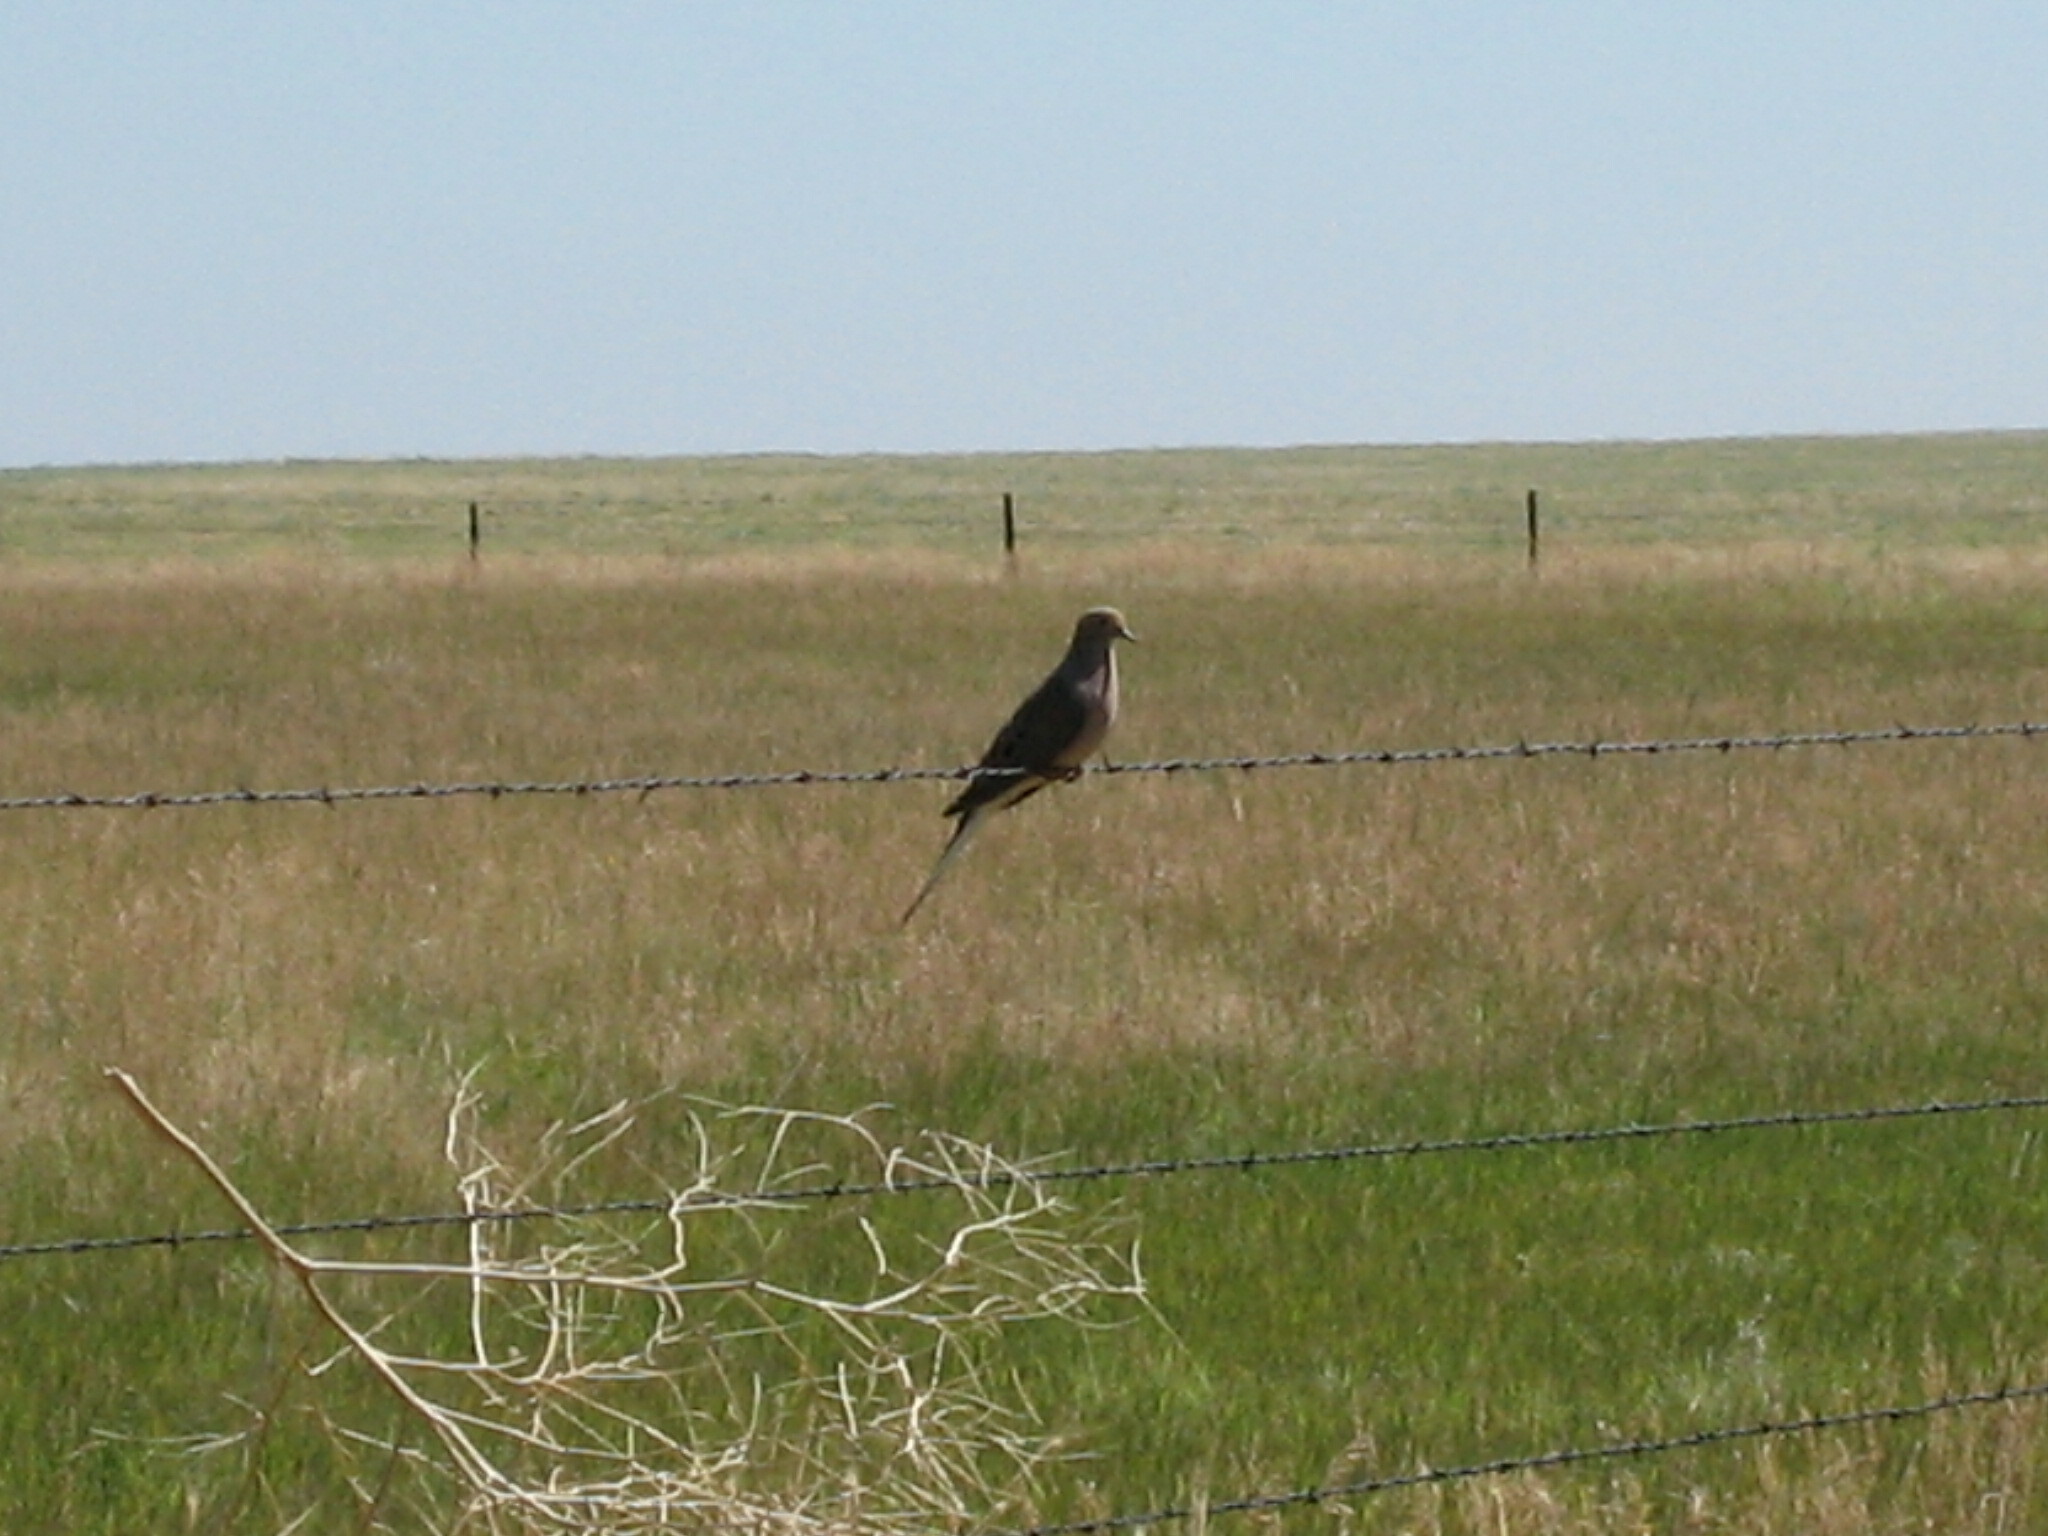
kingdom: Animalia
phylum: Chordata
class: Aves
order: Columbiformes
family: Columbidae
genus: Zenaida
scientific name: Zenaida macroura
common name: Mourning dove
